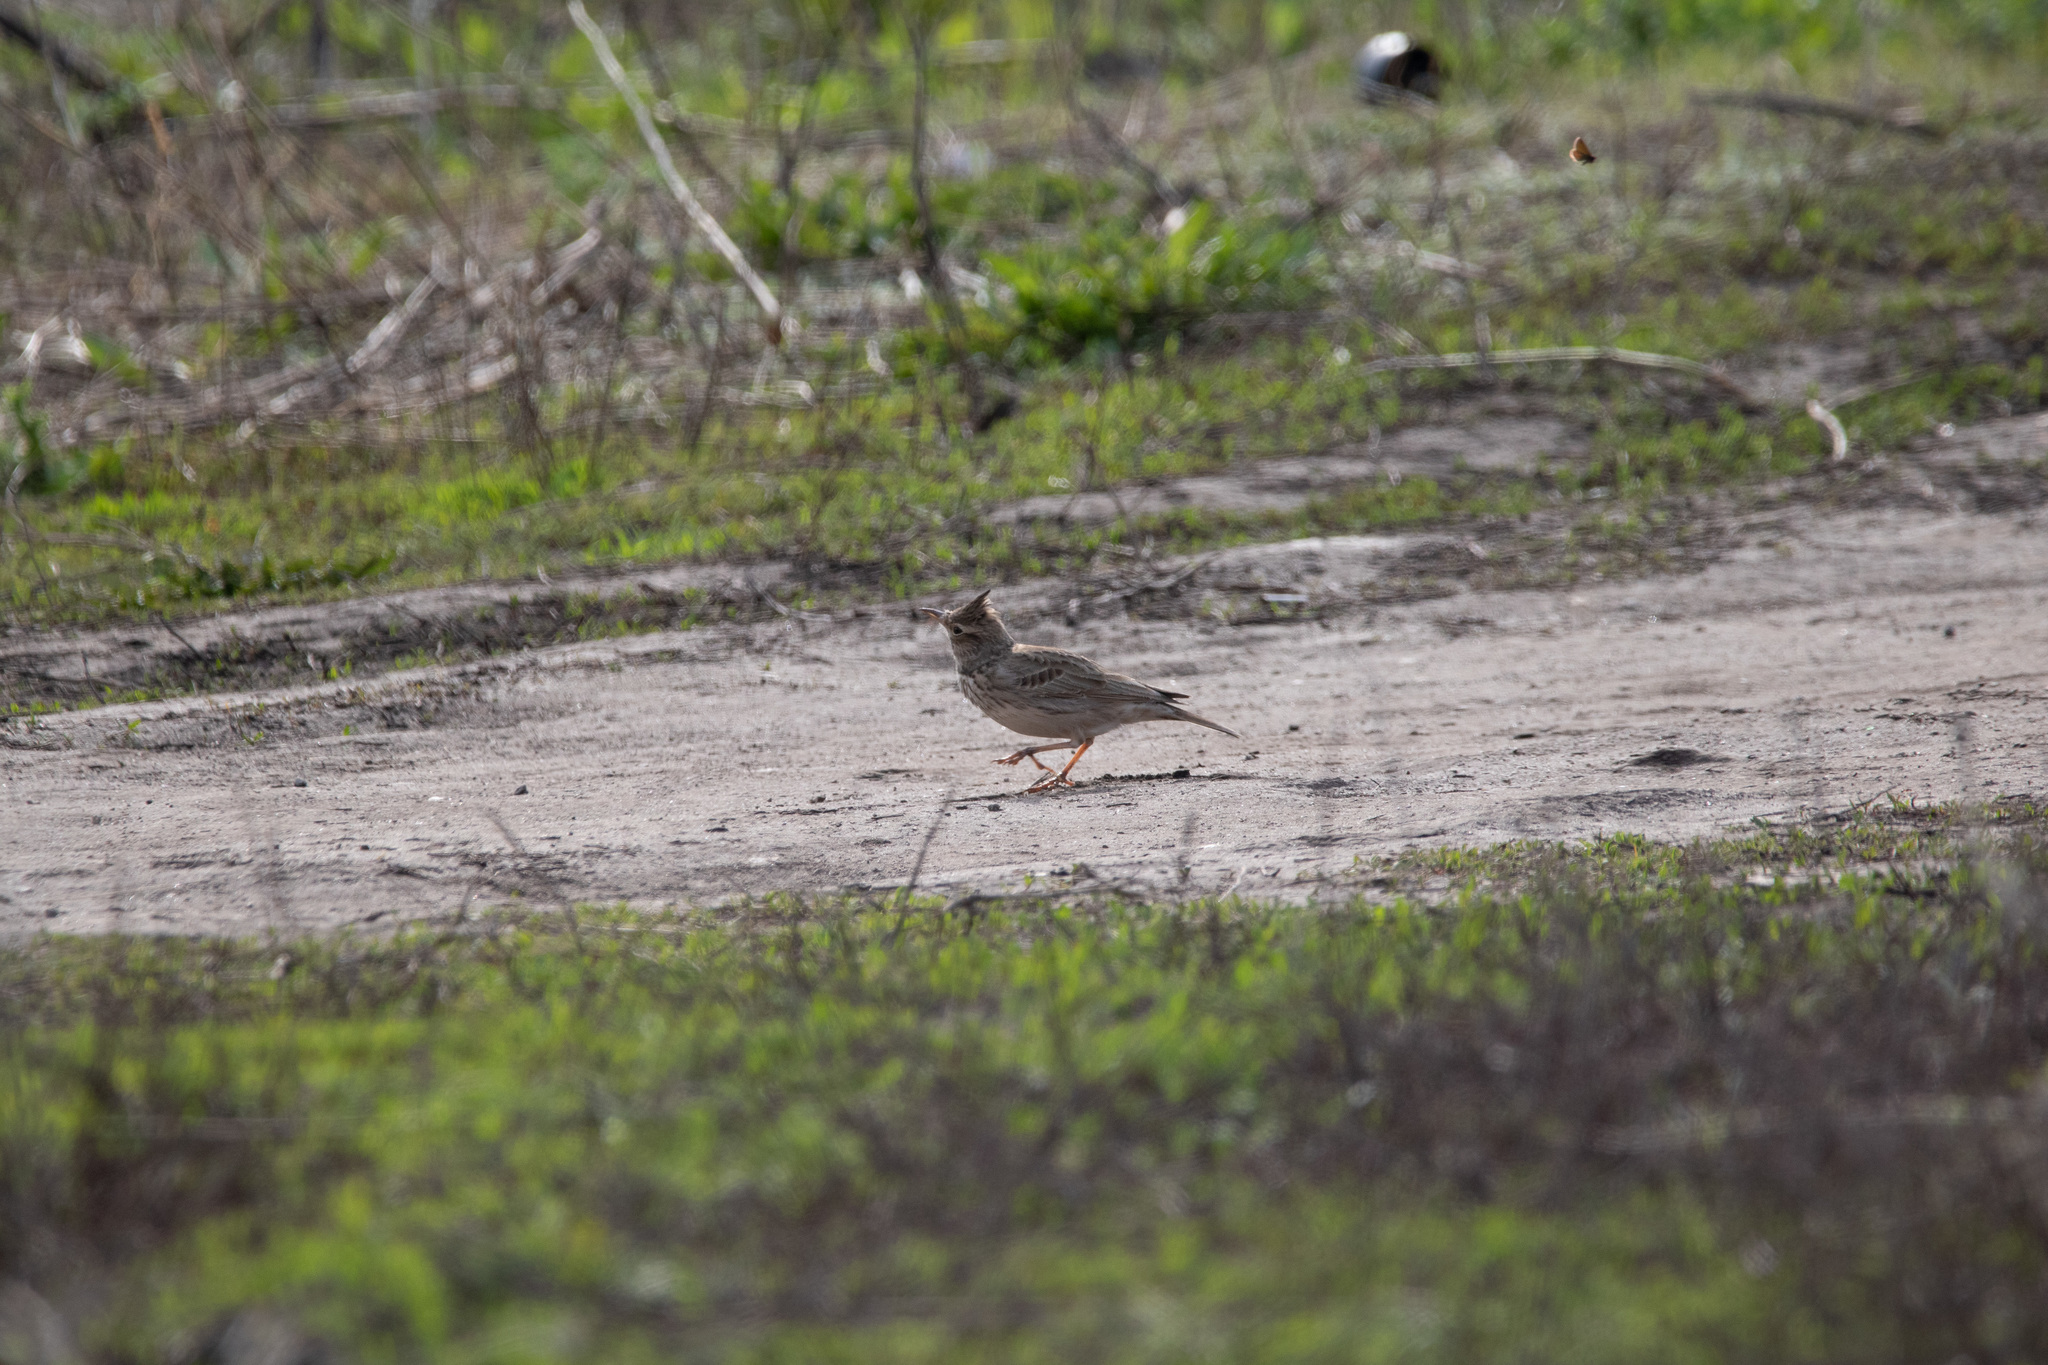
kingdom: Animalia
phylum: Chordata
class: Aves
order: Passeriformes
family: Alaudidae
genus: Galerida
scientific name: Galerida cristata
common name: Crested lark
